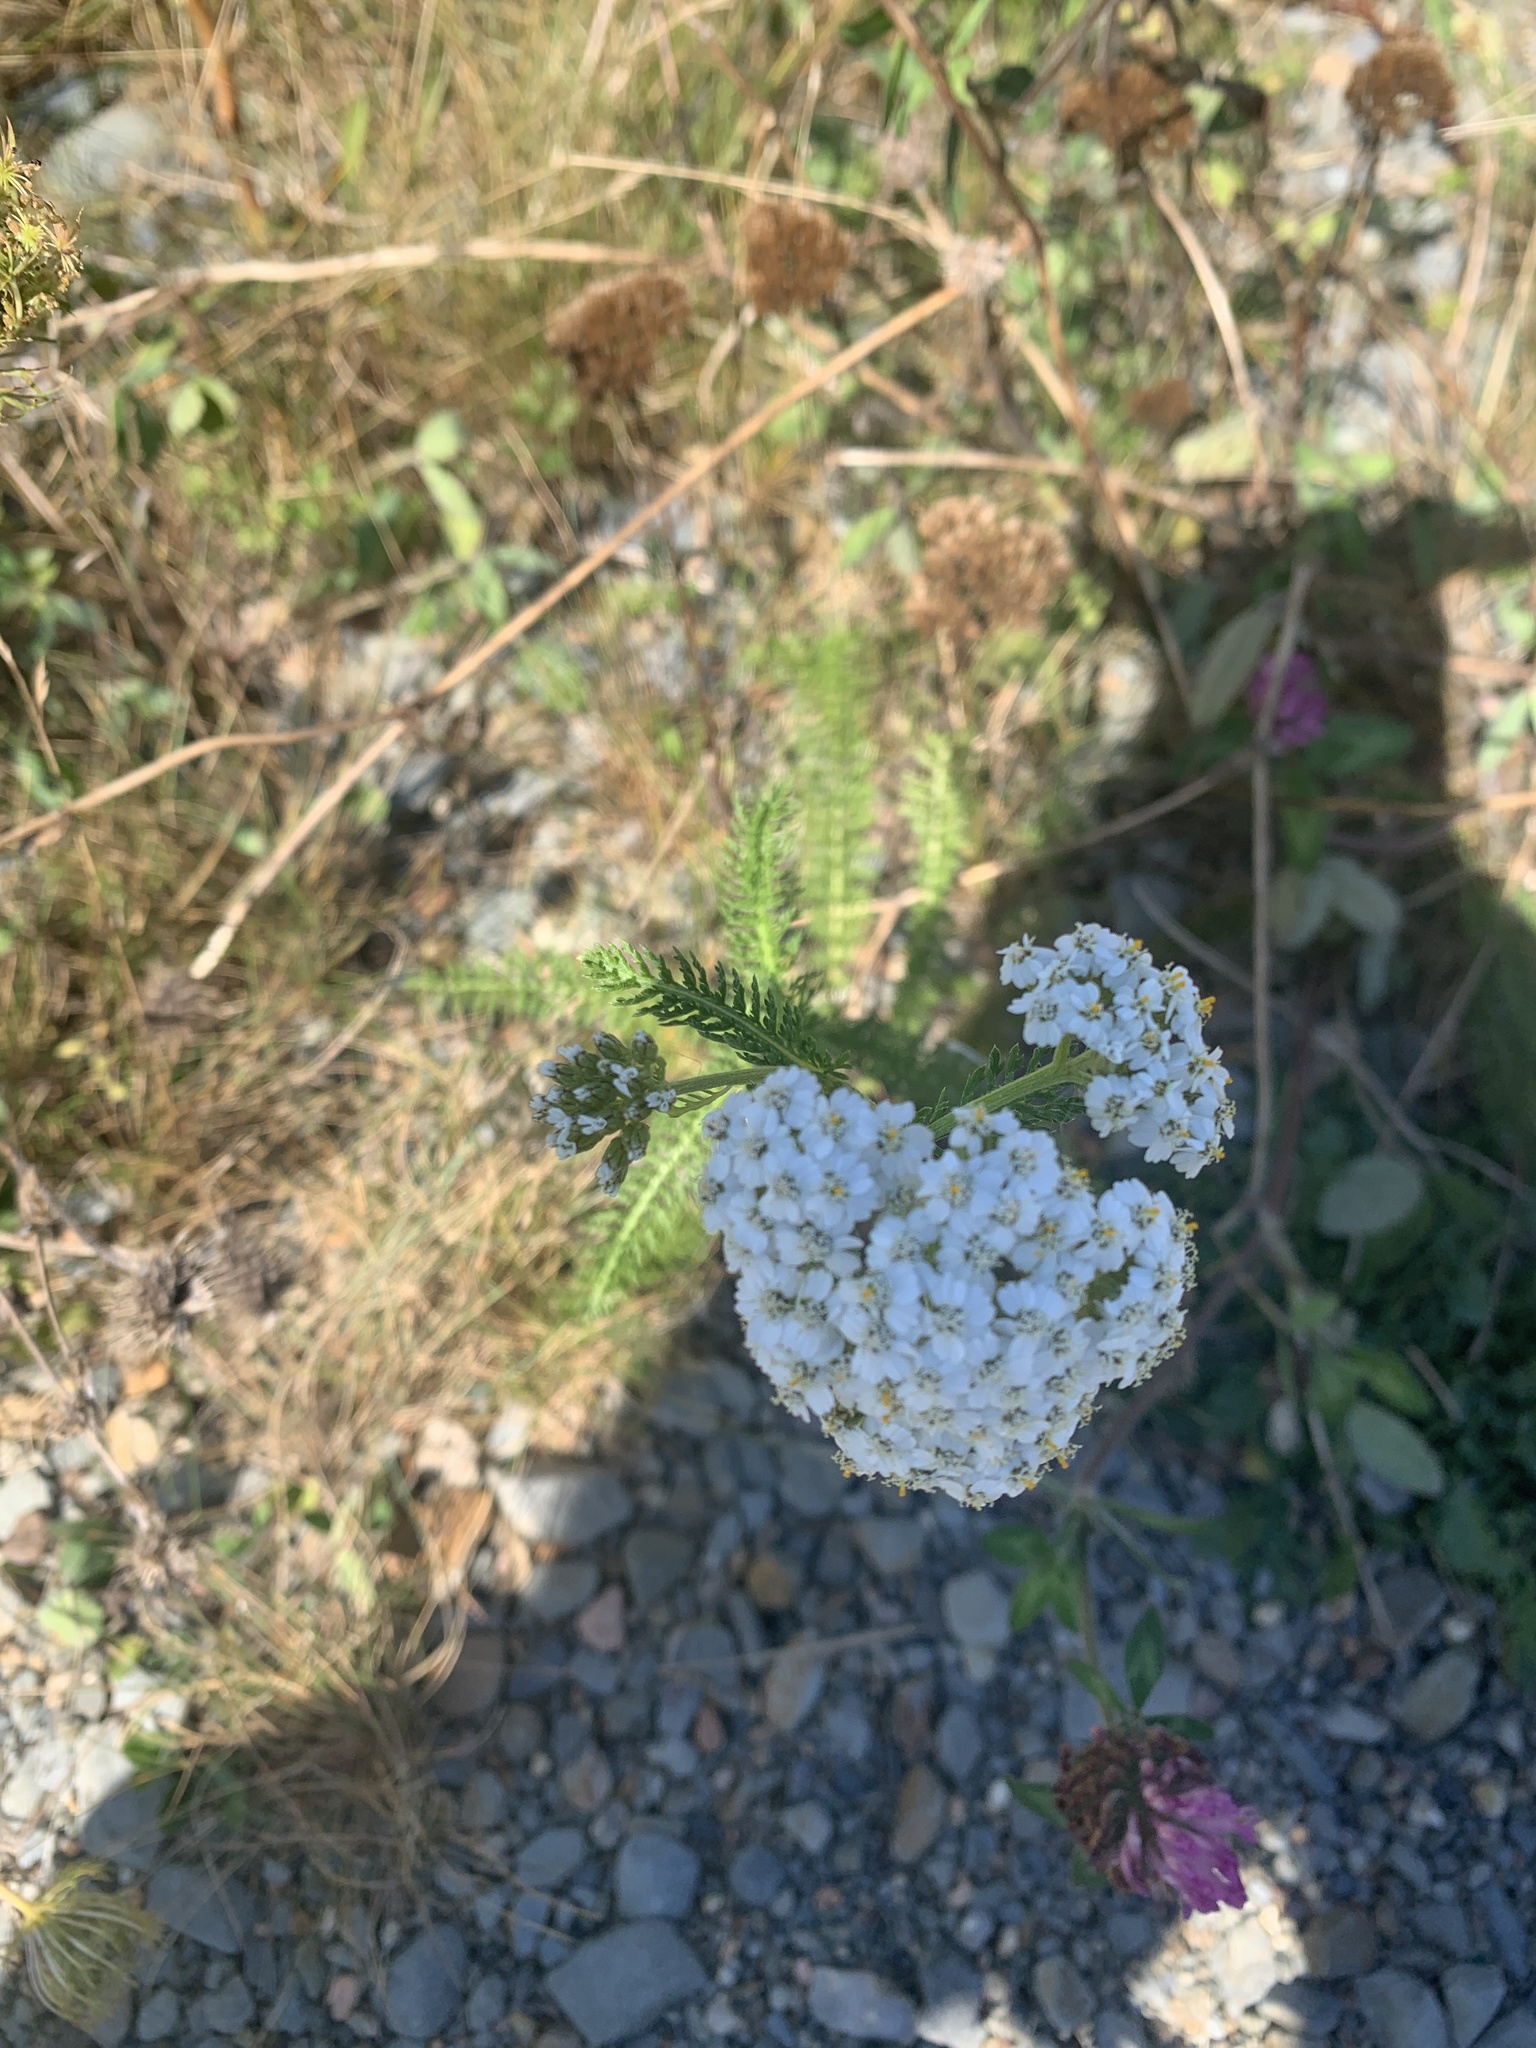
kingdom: Plantae
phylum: Tracheophyta
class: Magnoliopsida
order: Asterales
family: Asteraceae
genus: Achillea
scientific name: Achillea millefolium
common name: Yarrow
